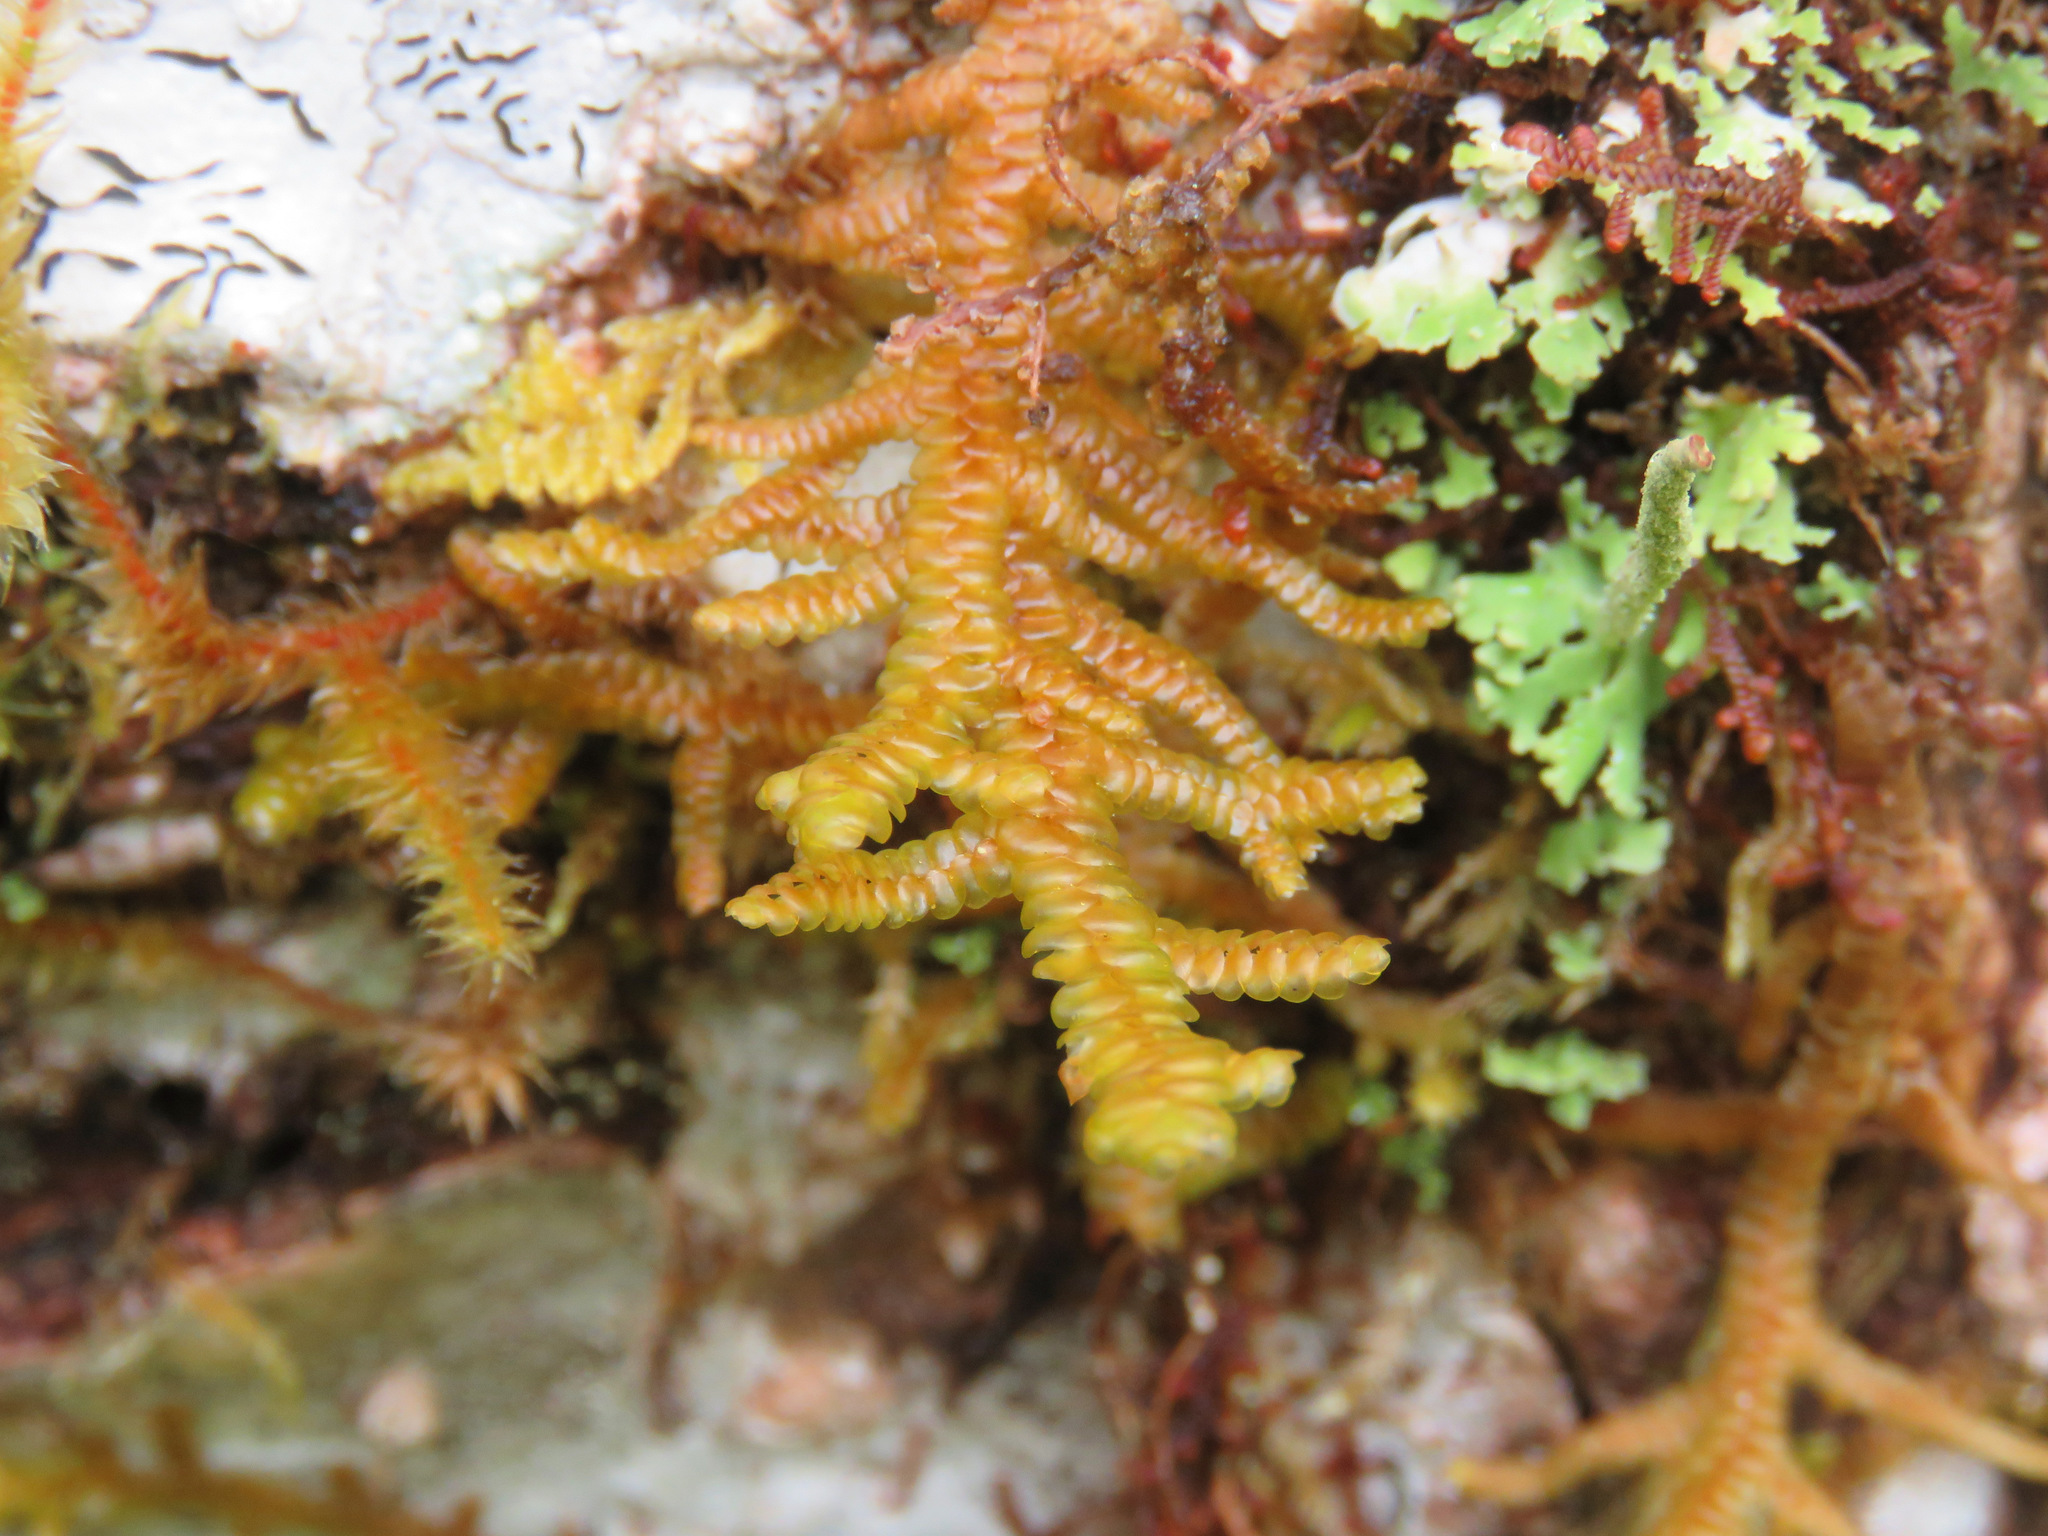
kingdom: Plantae
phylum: Marchantiophyta
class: Jungermanniopsida
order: Porellales
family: Porellaceae
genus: Porella
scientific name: Porella navicularis
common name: Tree ruffle liverwort
